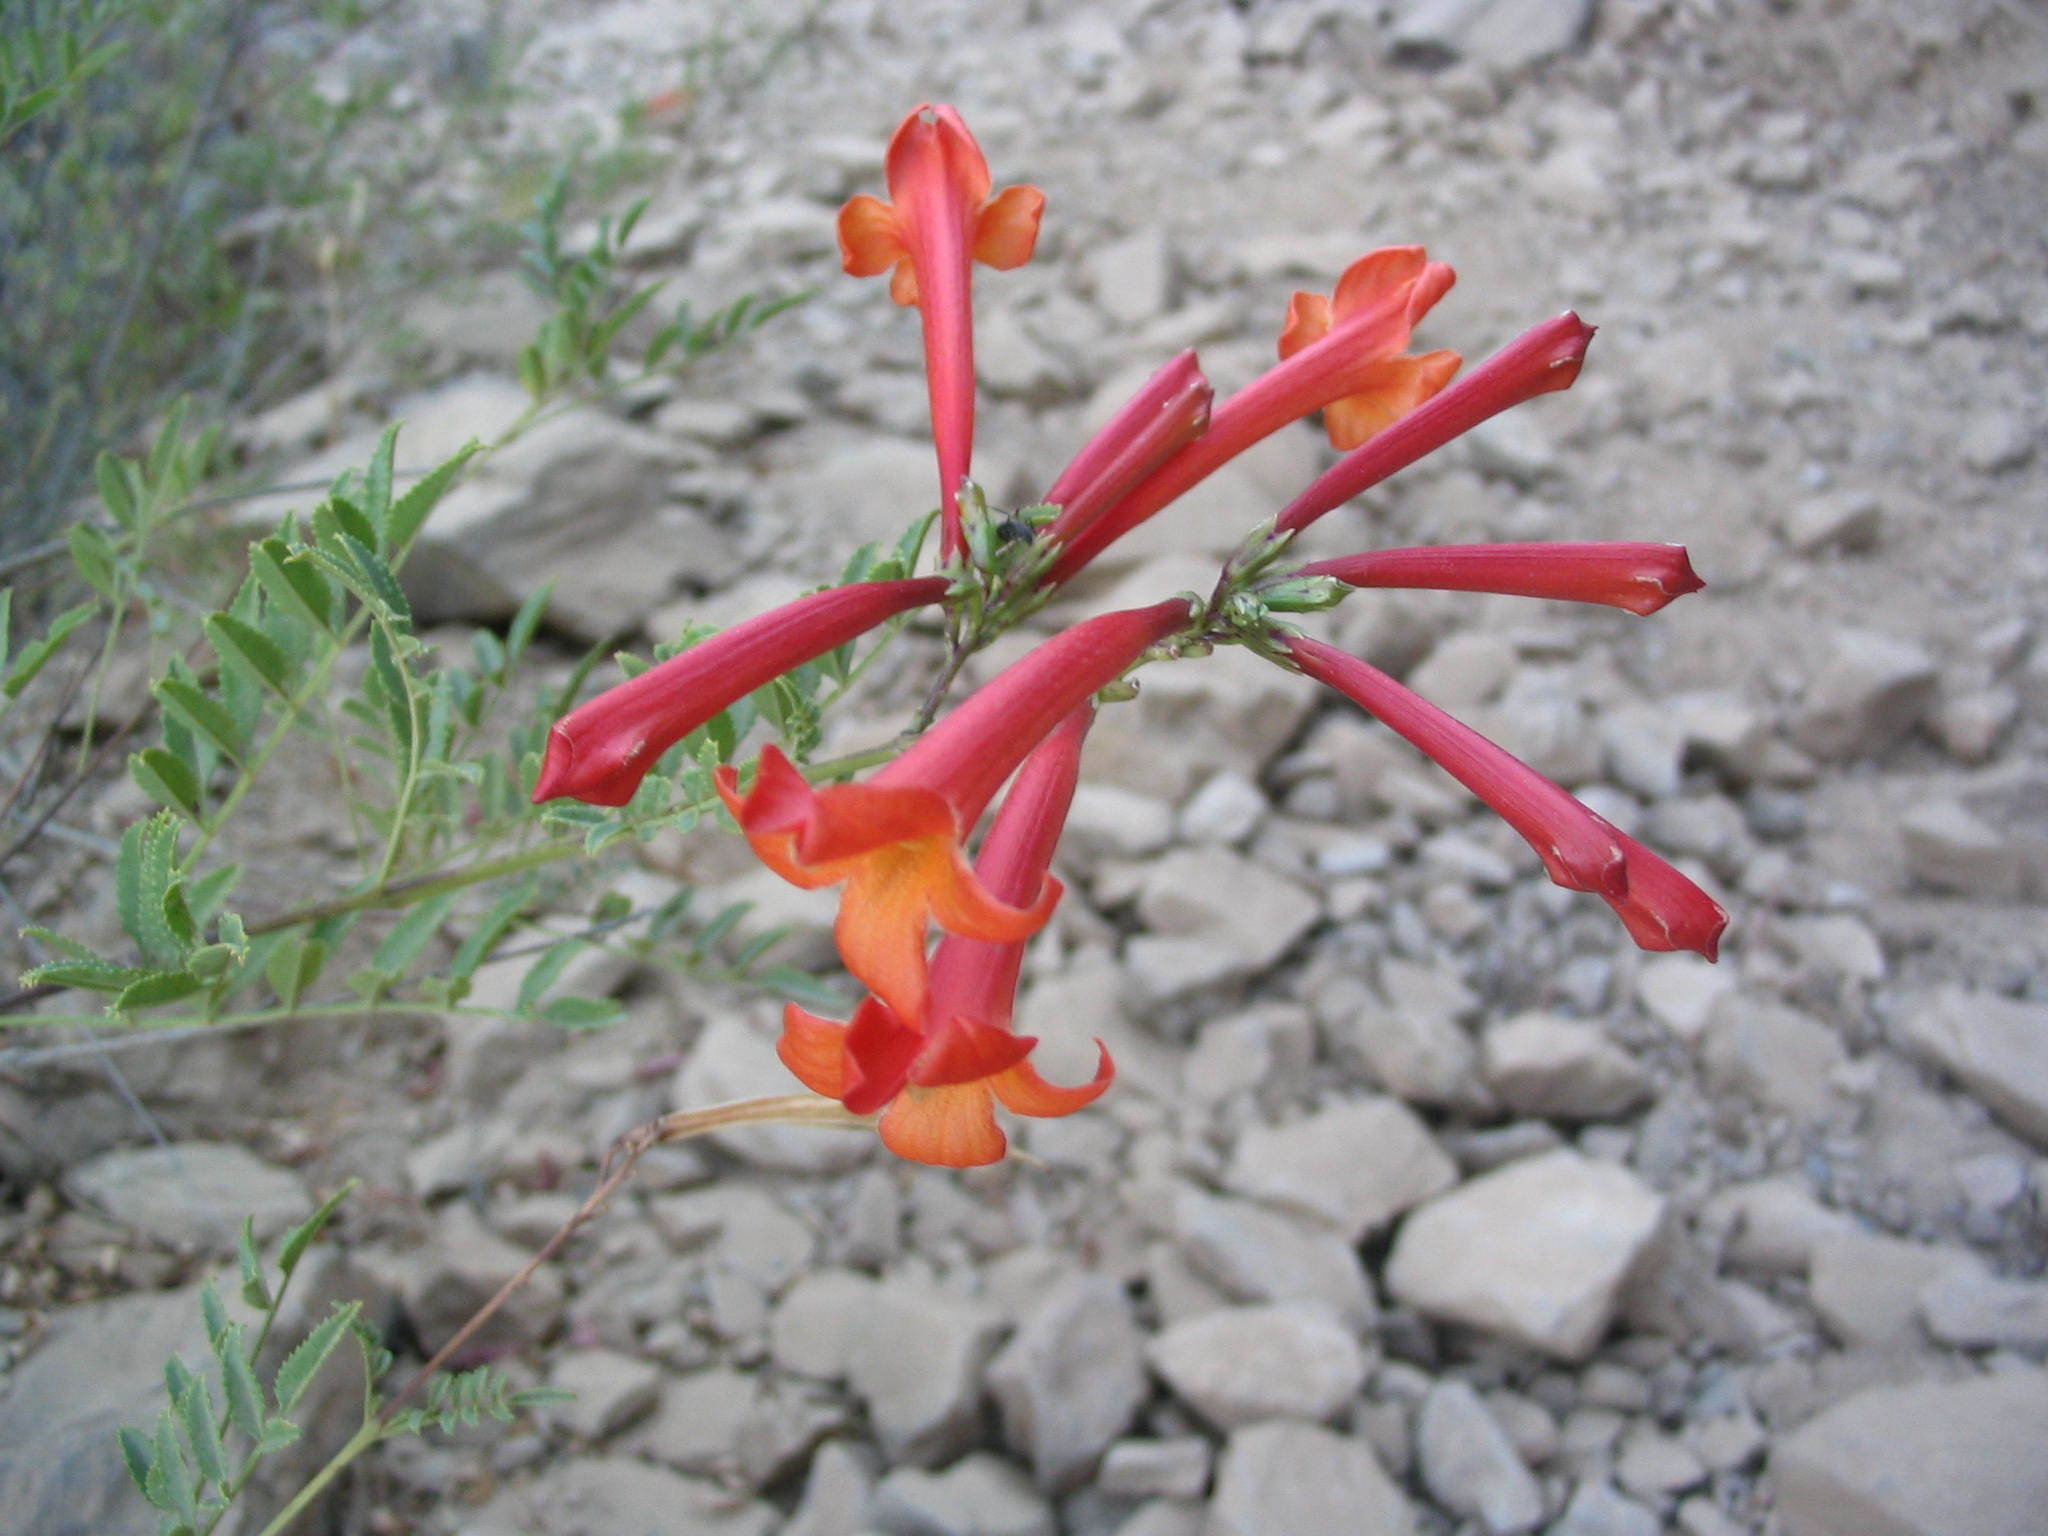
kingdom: Plantae
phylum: Tracheophyta
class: Magnoliopsida
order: Lamiales
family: Bignoniaceae
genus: Tecoma
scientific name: Tecoma fulva
